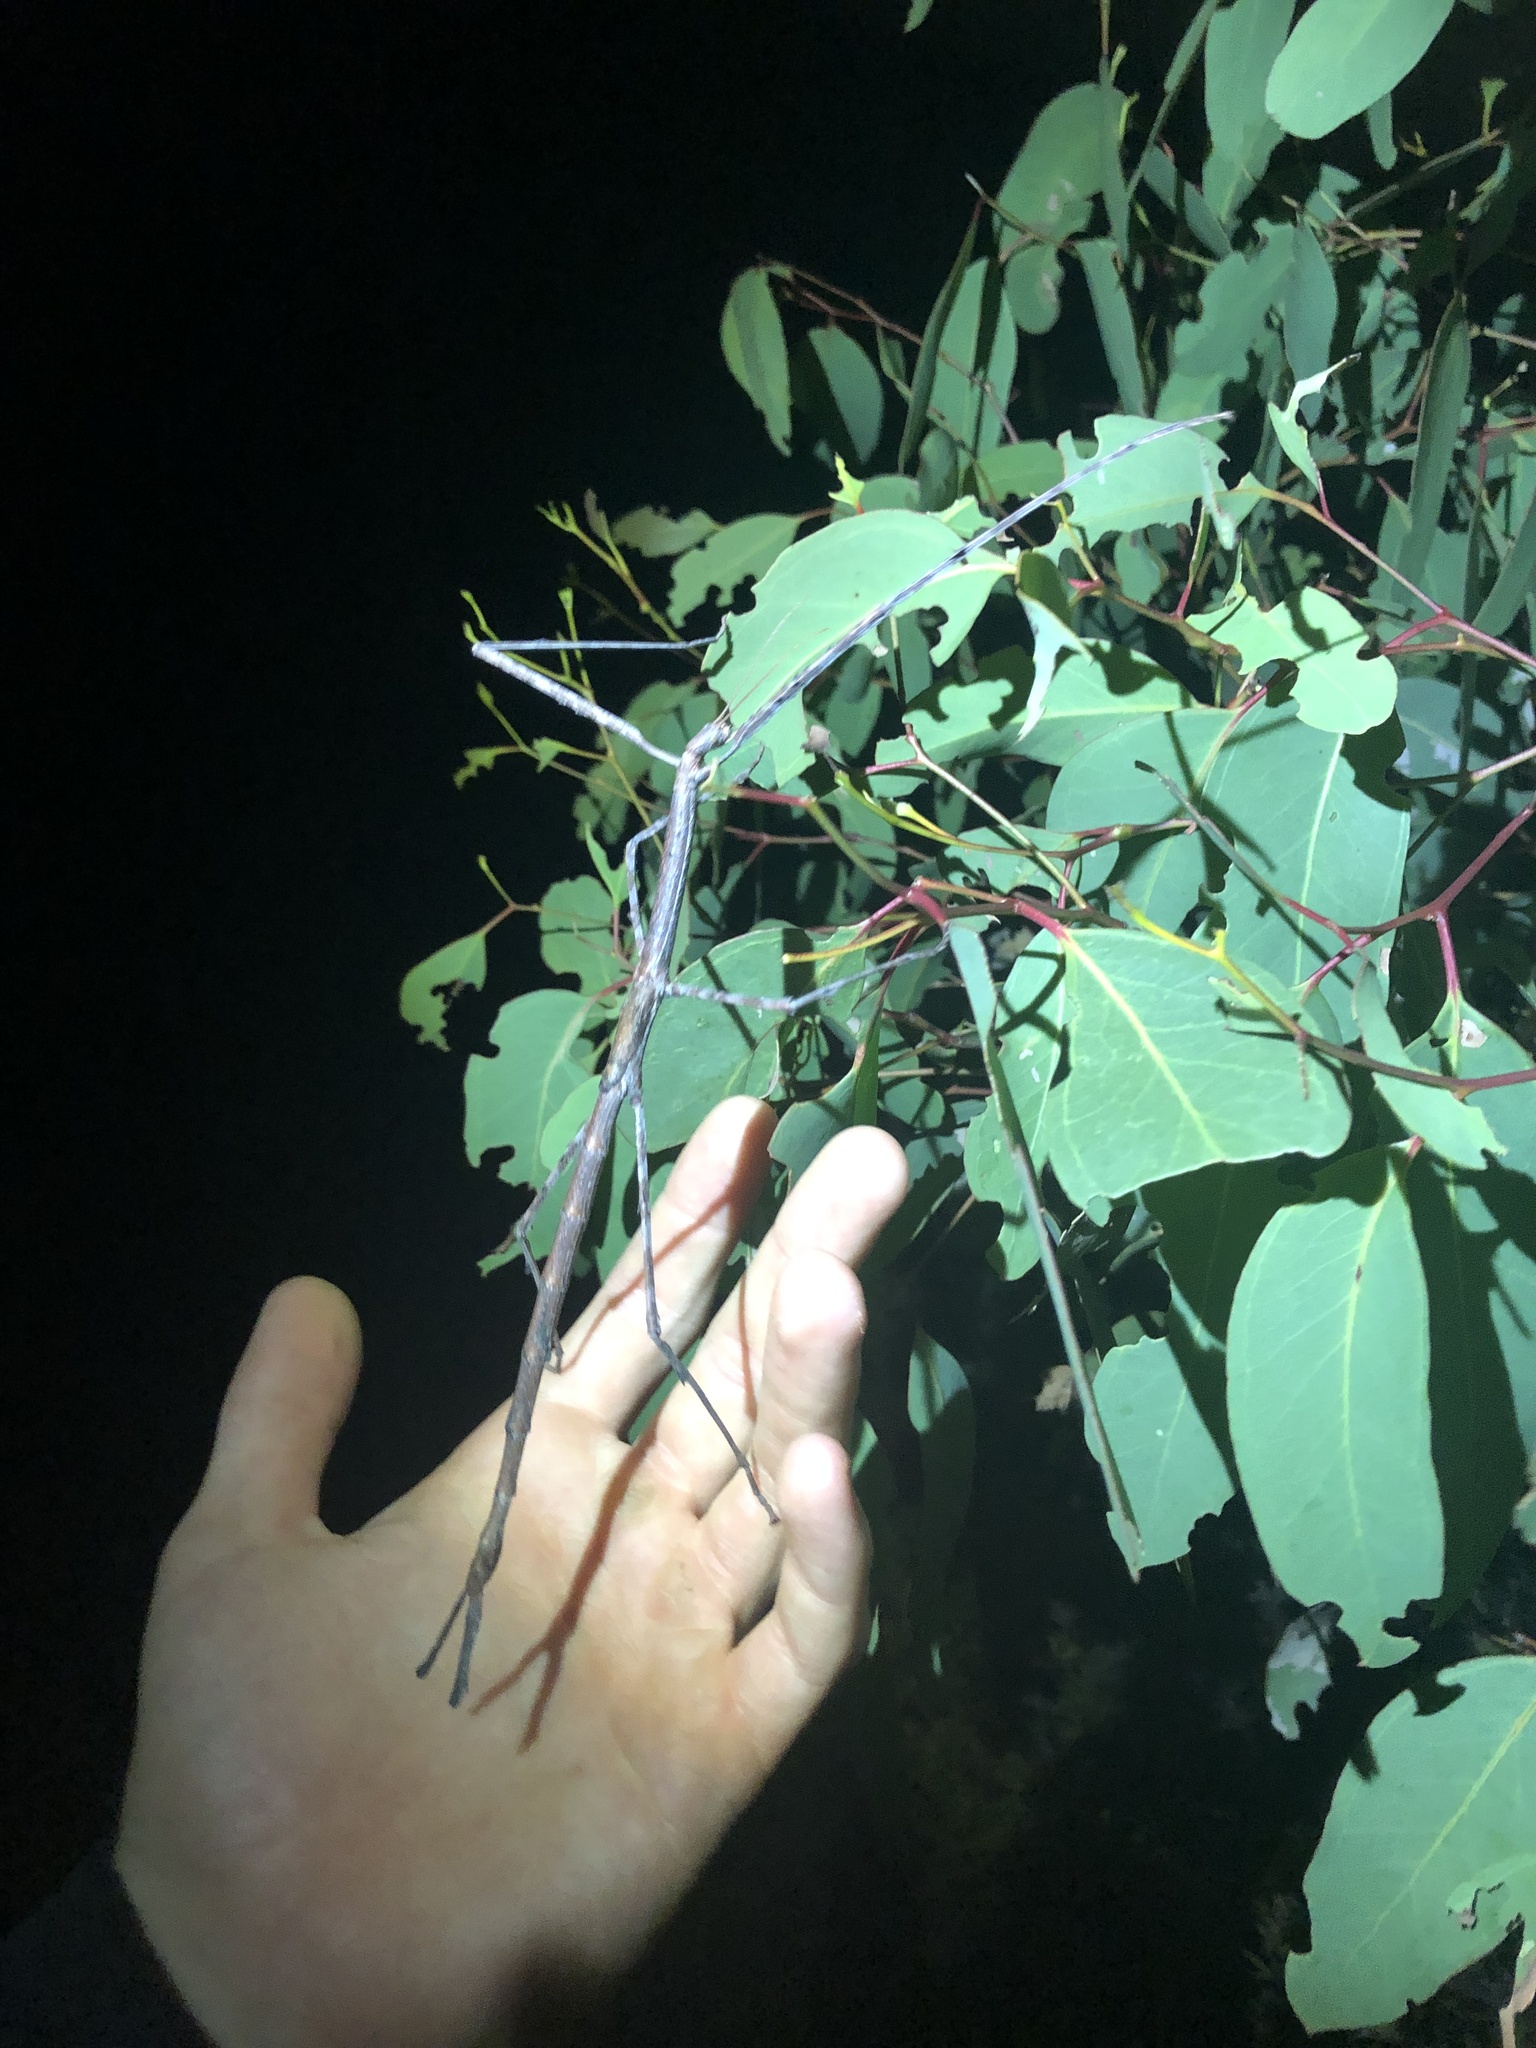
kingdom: Animalia
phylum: Arthropoda
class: Insecta
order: Phasmida
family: Phasmatidae
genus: Ctenomorpha
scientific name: Ctenomorpha marginipennis
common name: Margined-winged stick-insect
